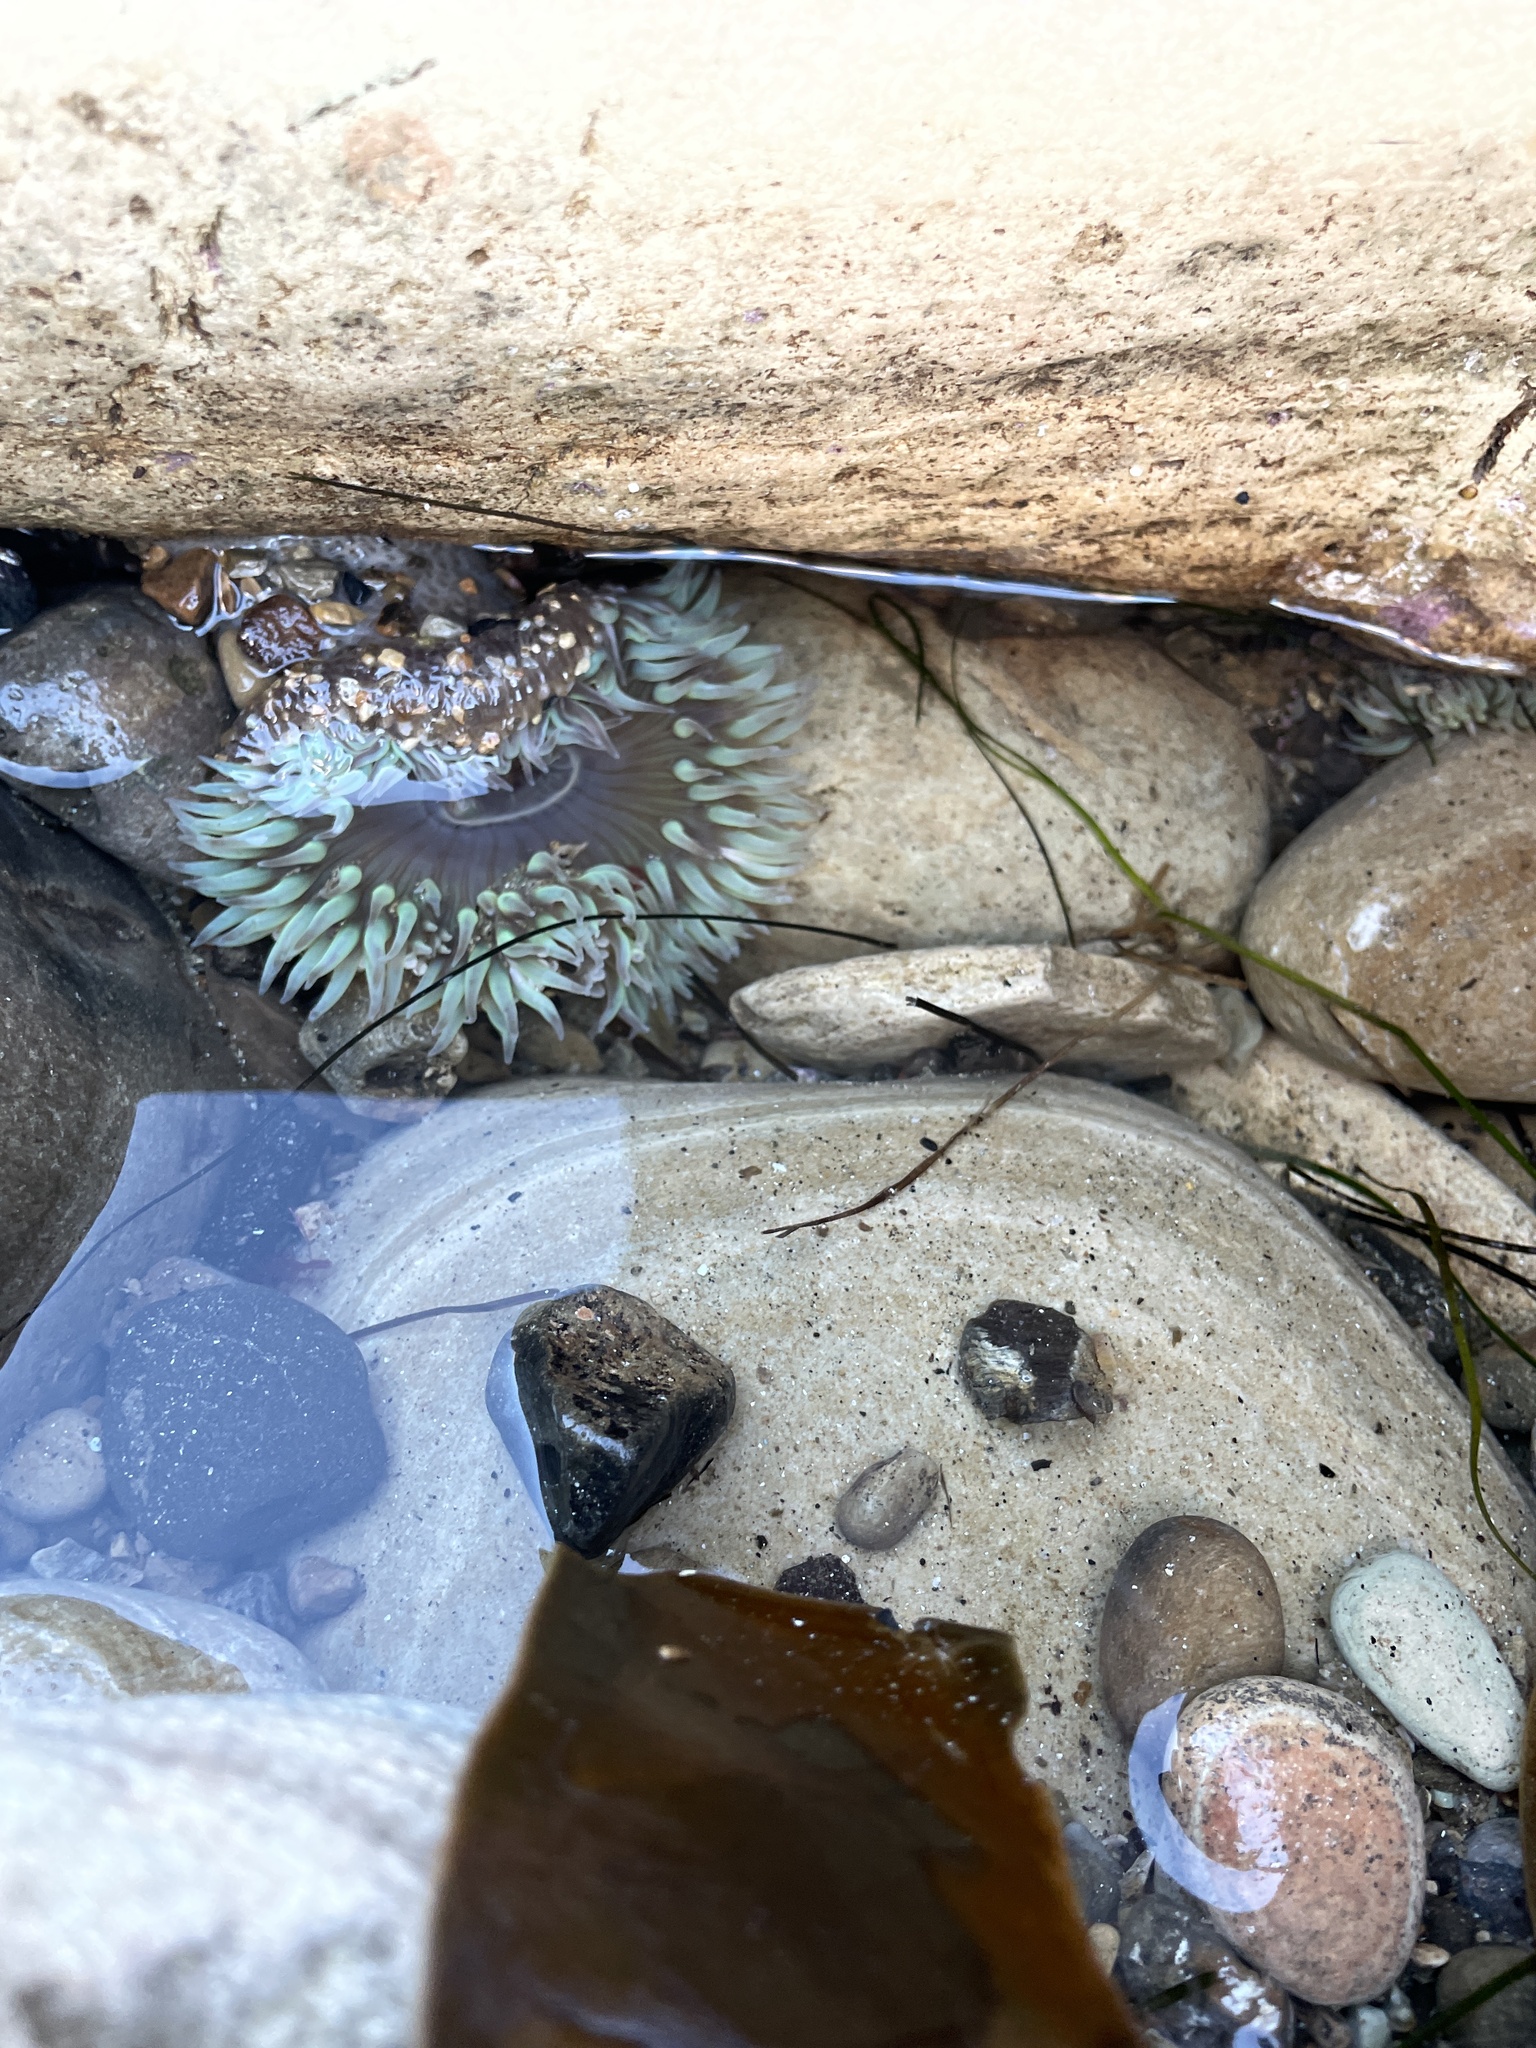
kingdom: Animalia
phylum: Cnidaria
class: Anthozoa
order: Actiniaria
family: Actiniidae
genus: Anthopleura
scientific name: Anthopleura sola
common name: Sun anemone
